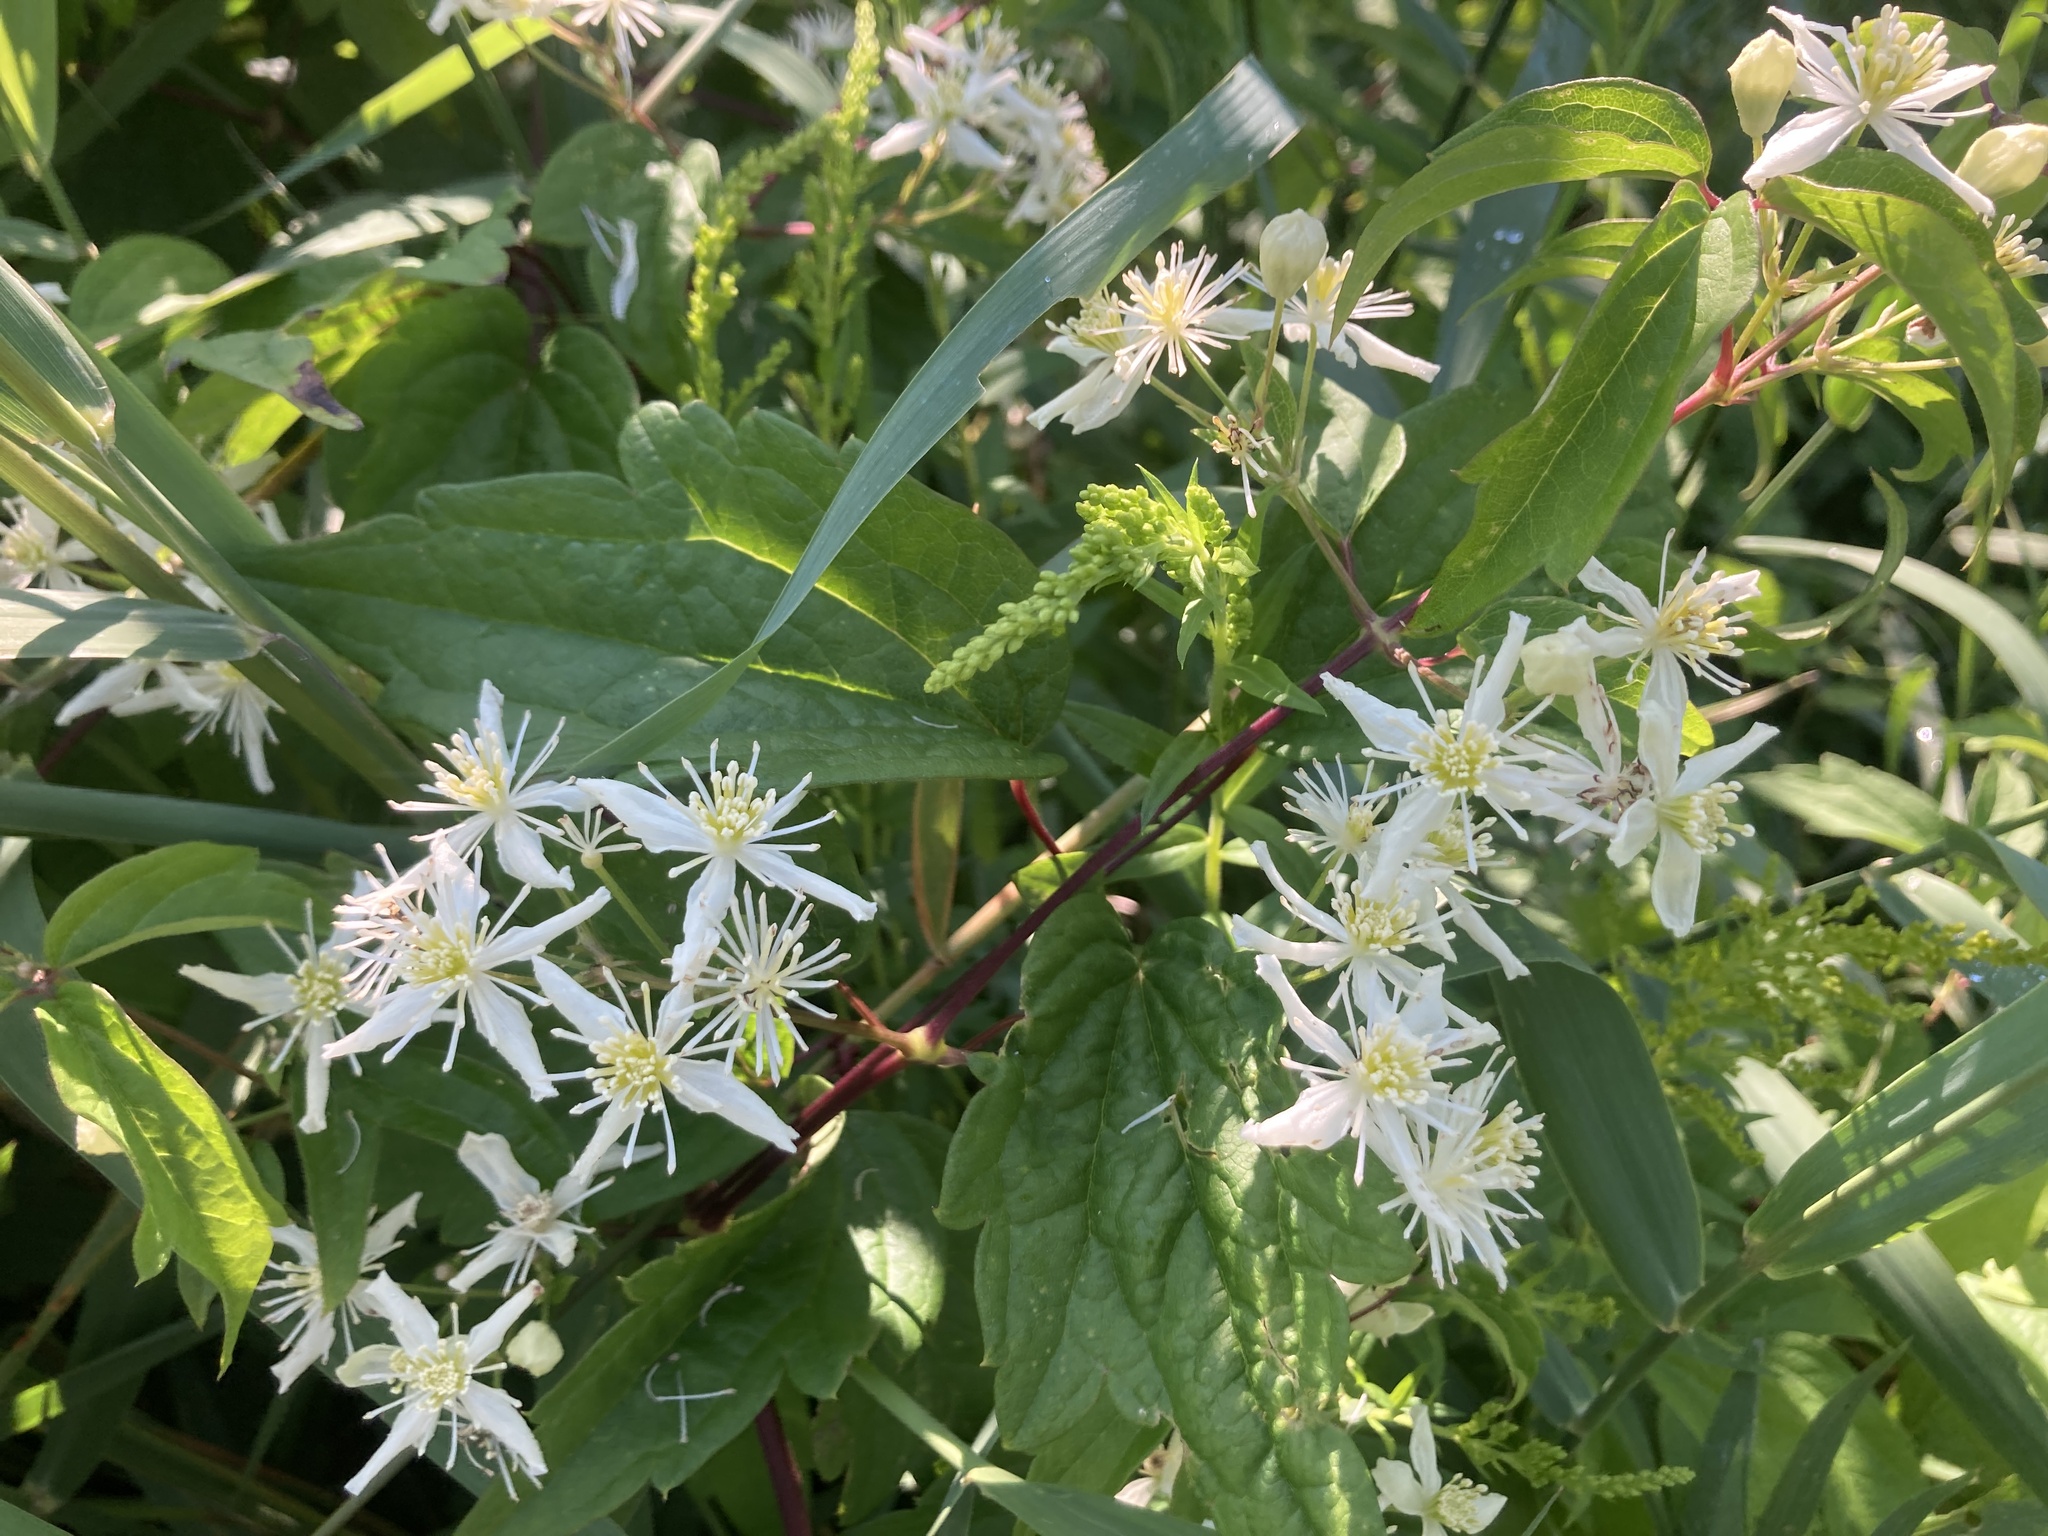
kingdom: Plantae
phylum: Tracheophyta
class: Magnoliopsida
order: Ranunculales
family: Ranunculaceae
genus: Clematis
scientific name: Clematis virginiana
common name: Virgin's-bower
